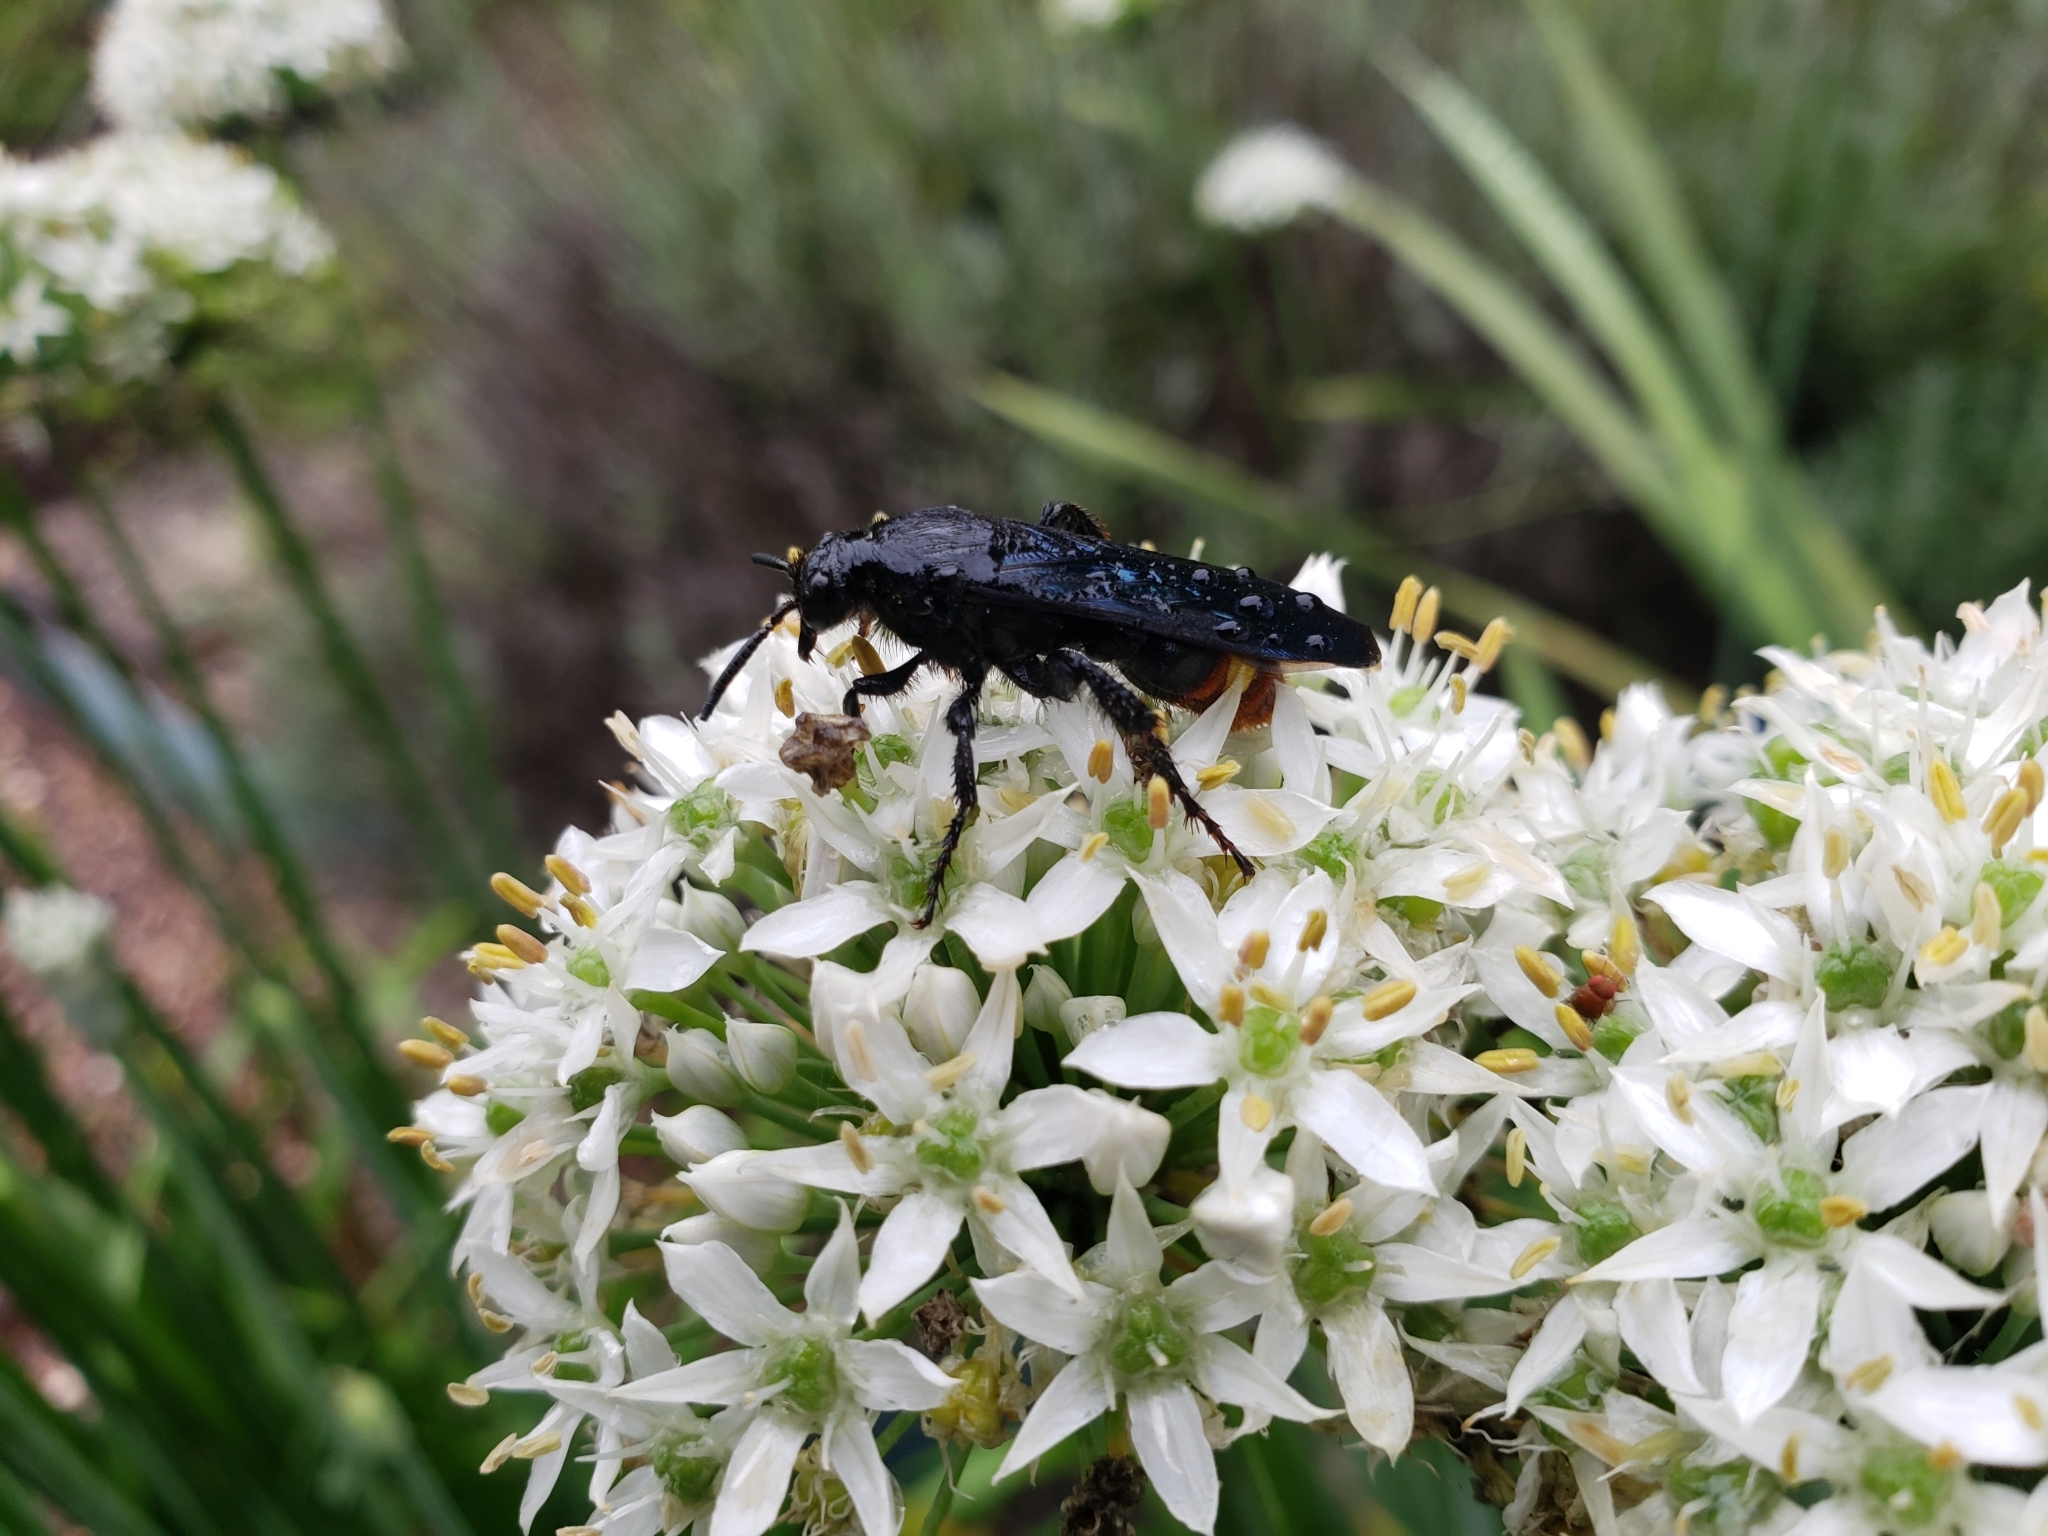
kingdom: Animalia
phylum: Arthropoda
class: Insecta
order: Hymenoptera
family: Scoliidae
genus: Scolia
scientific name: Scolia dubia
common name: Blue-winged scoliid wasp
